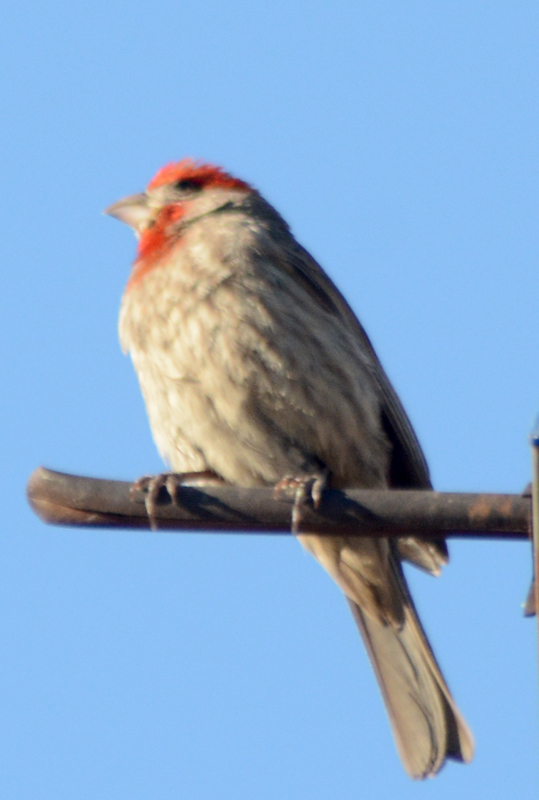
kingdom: Animalia
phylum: Chordata
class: Aves
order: Passeriformes
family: Fringillidae
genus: Haemorhous
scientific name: Haemorhous mexicanus
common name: House finch
